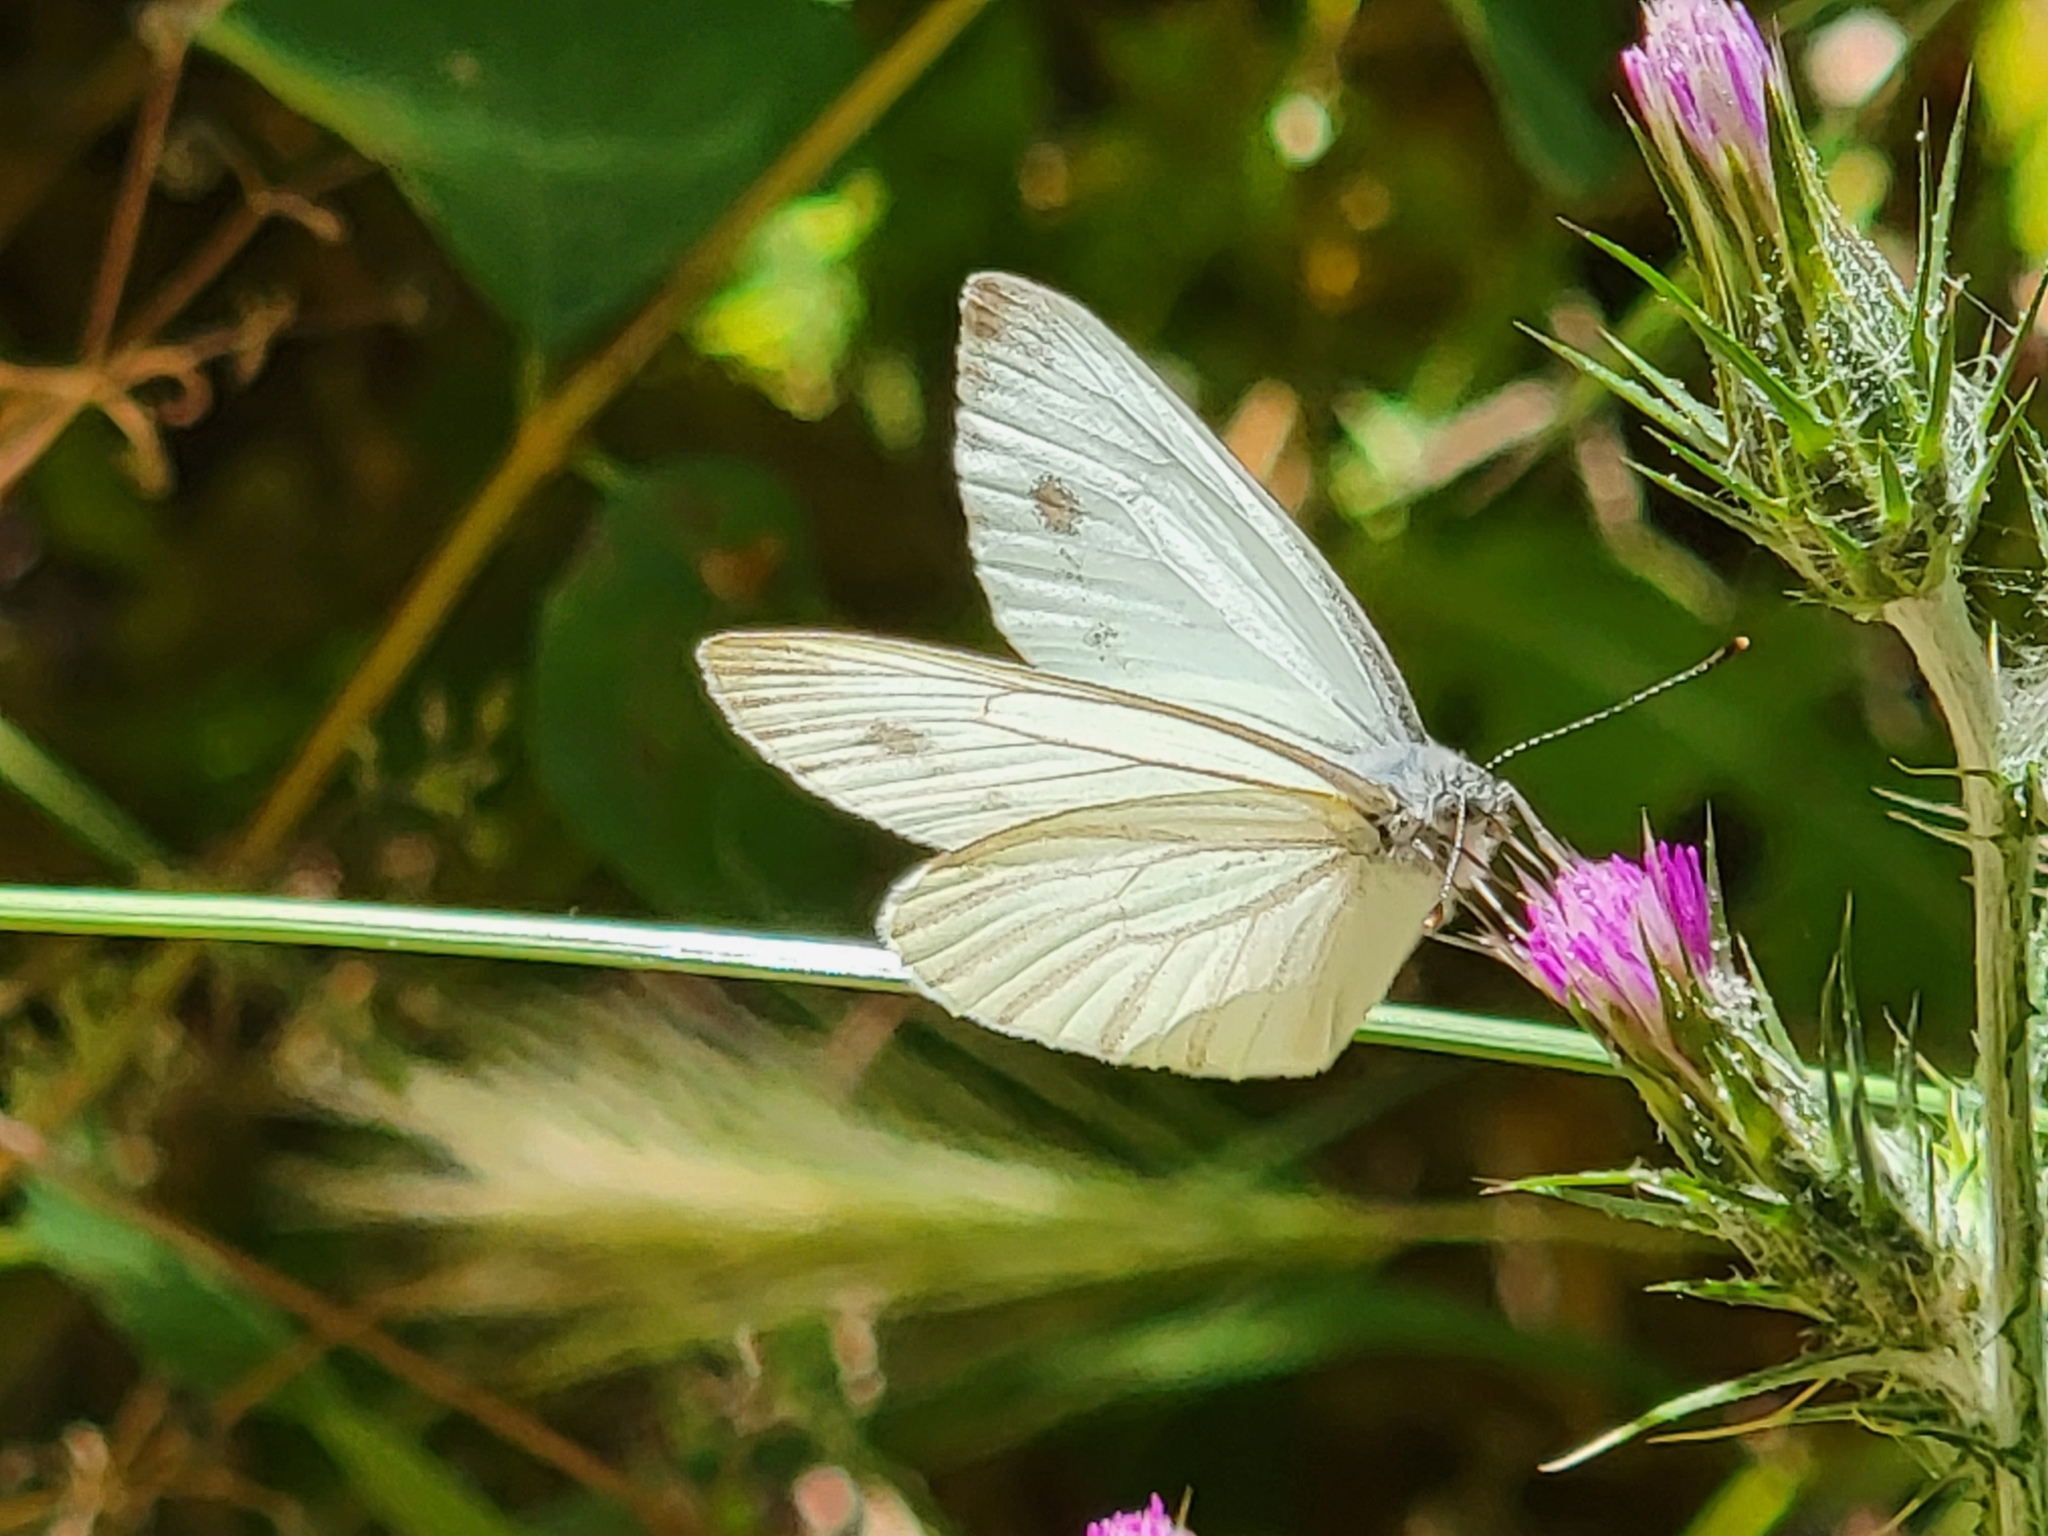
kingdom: Animalia
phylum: Arthropoda
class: Insecta
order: Lepidoptera
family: Pieridae
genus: Pieris
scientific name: Pieris marginalis
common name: Margined white
